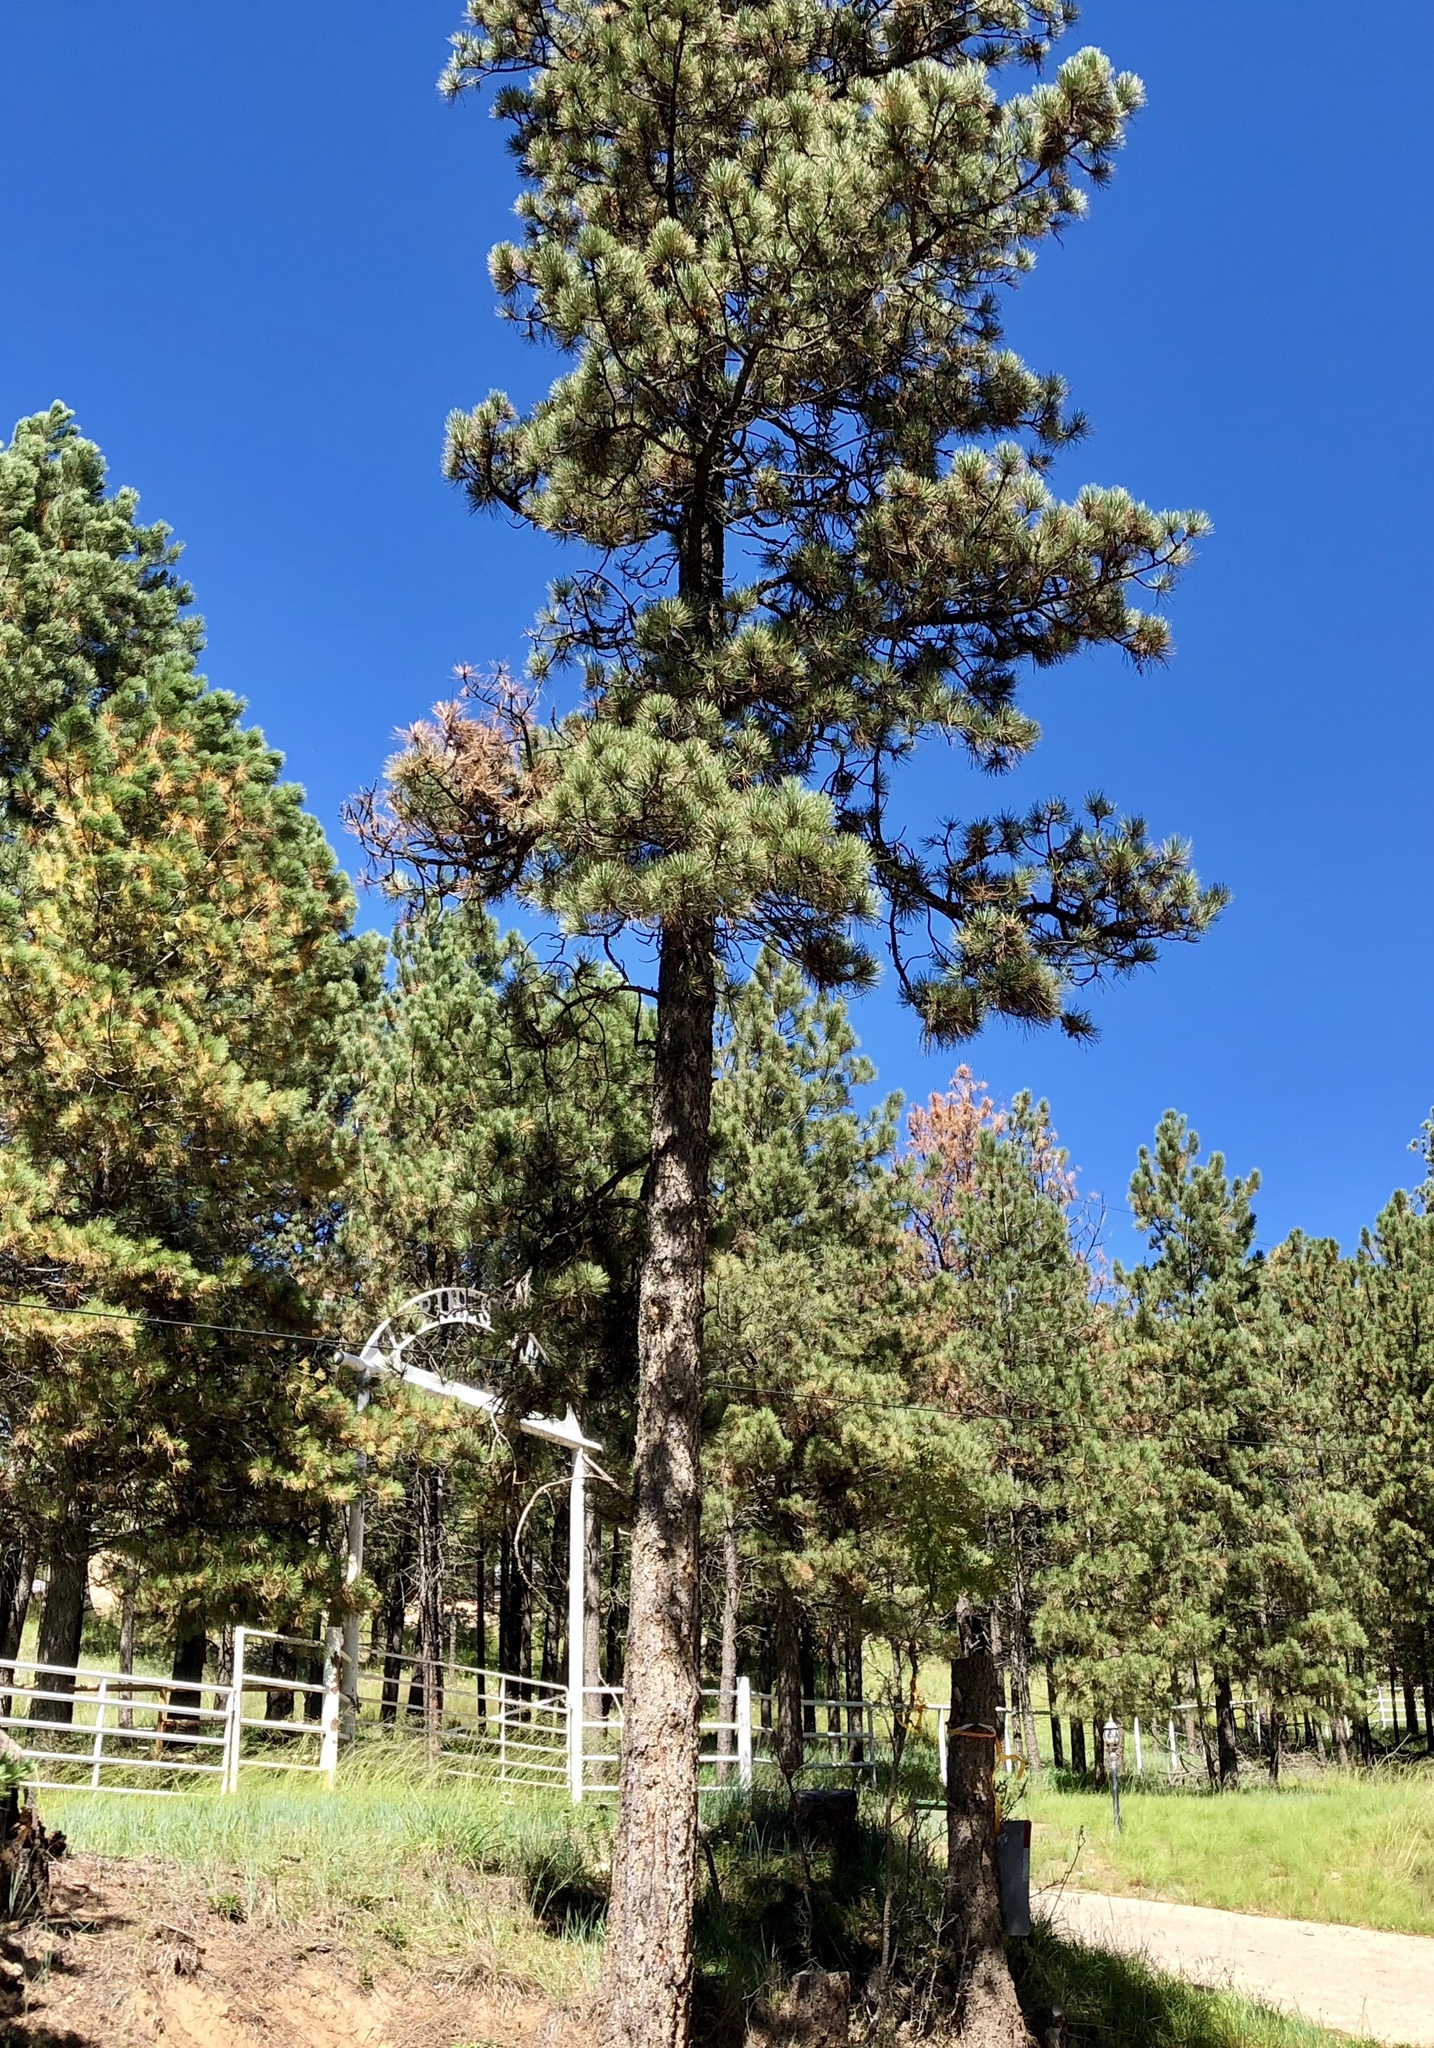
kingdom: Plantae
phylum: Tracheophyta
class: Pinopsida
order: Pinales
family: Pinaceae
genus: Pinus
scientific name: Pinus ponderosa
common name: Western yellow-pine
